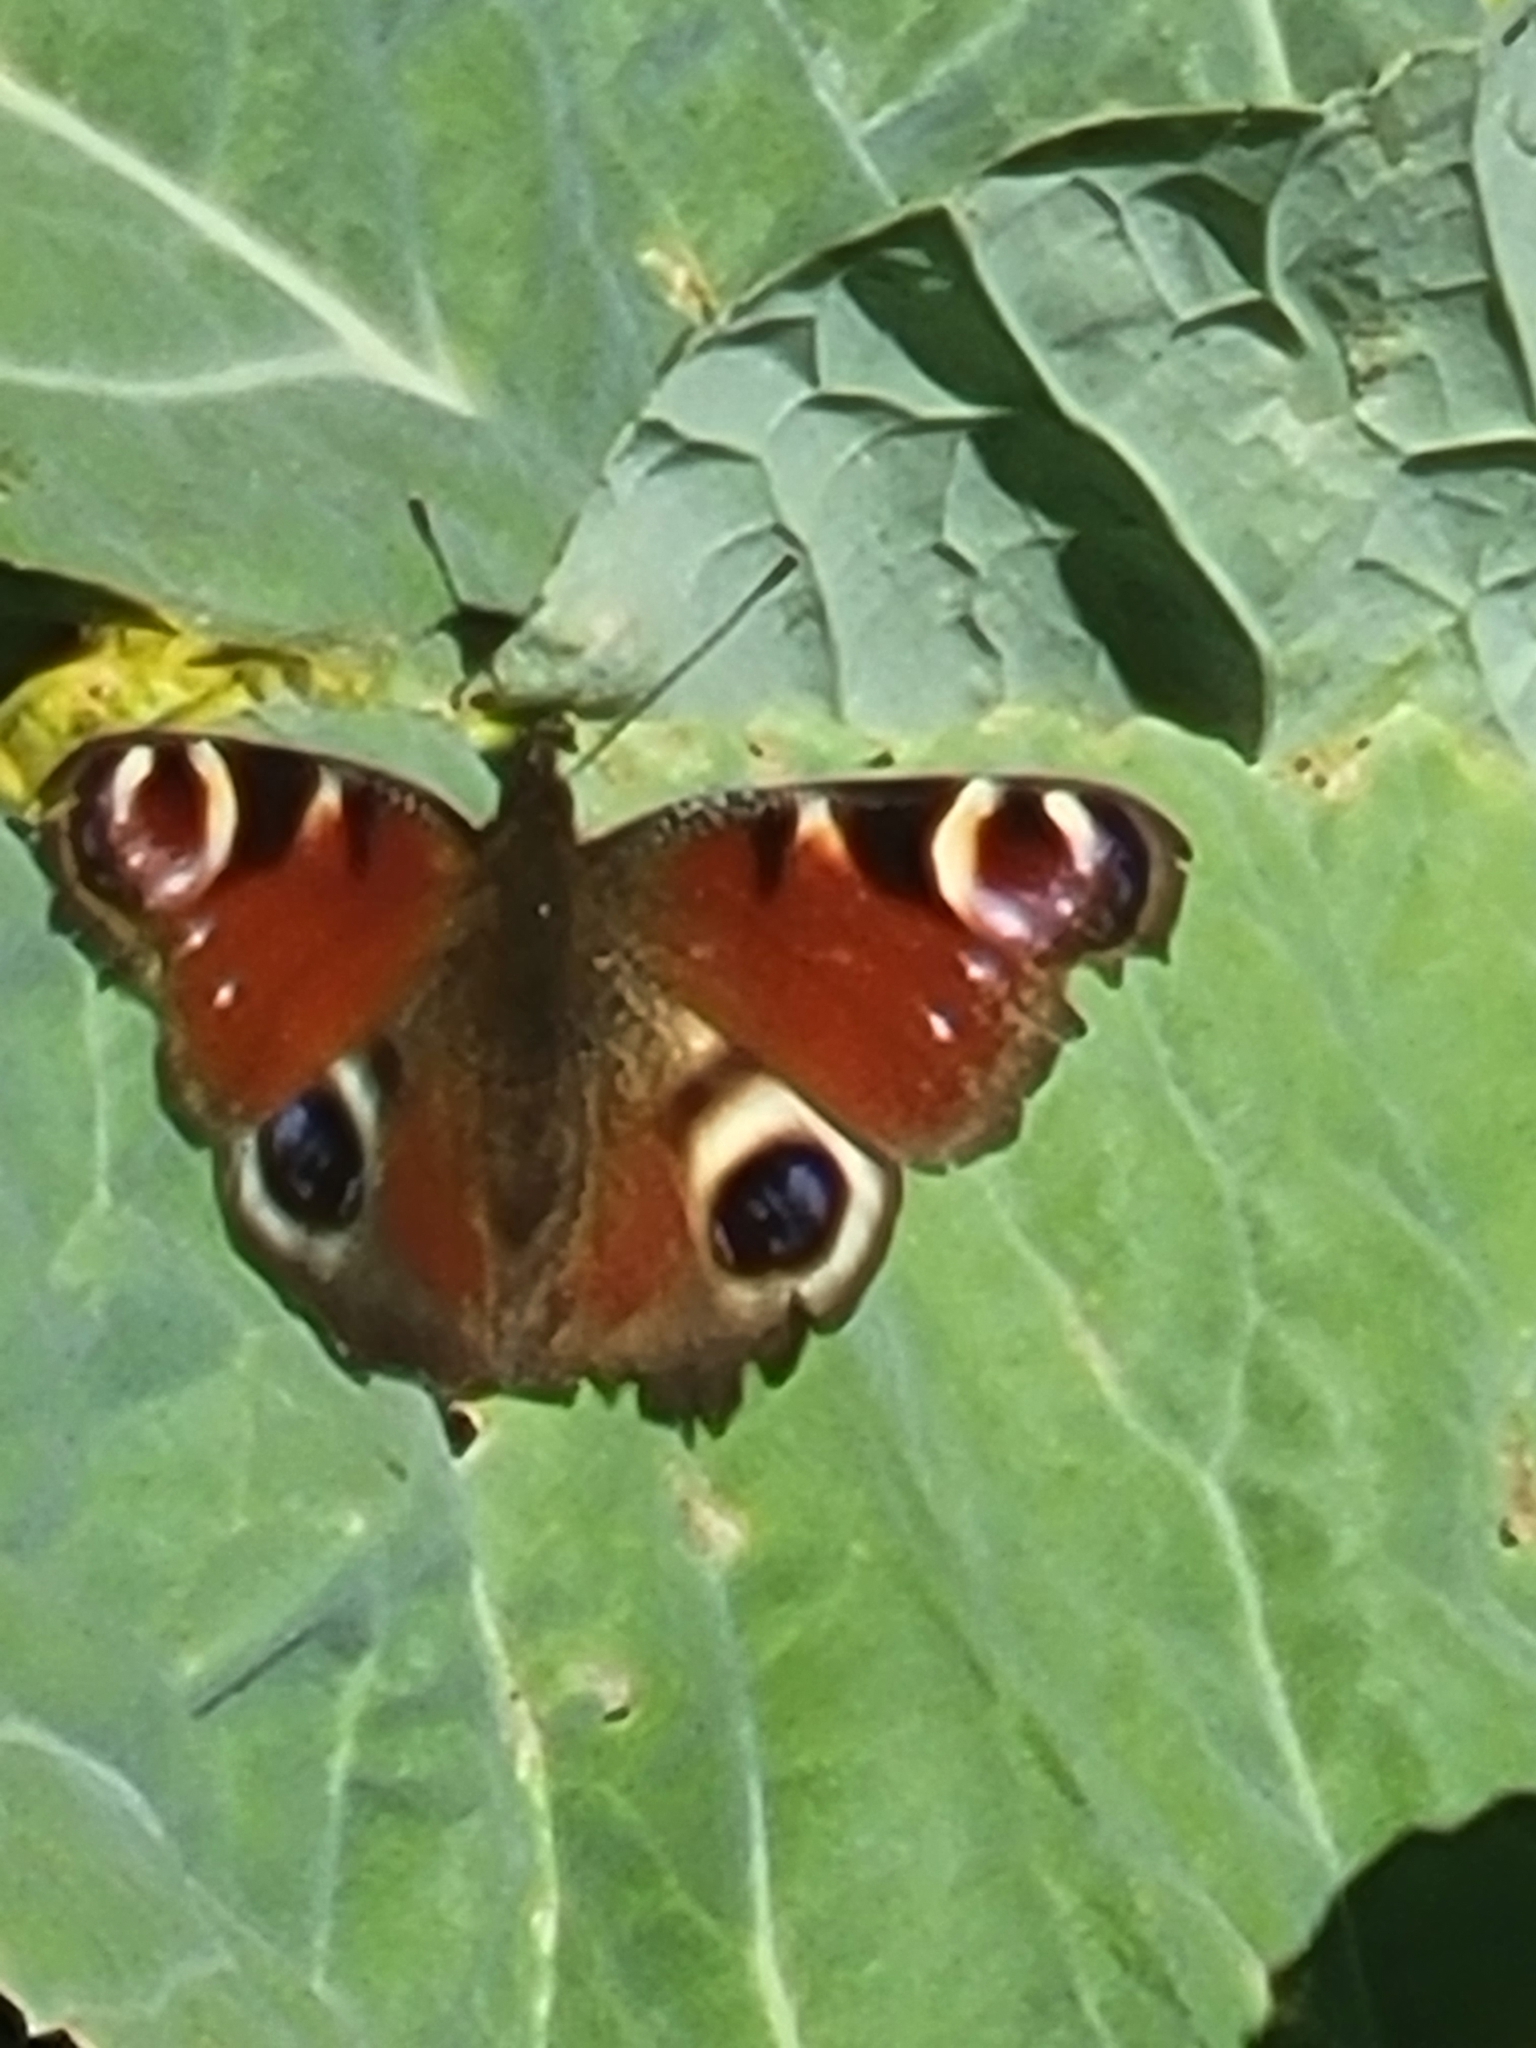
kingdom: Animalia
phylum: Arthropoda
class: Insecta
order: Lepidoptera
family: Nymphalidae
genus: Aglais
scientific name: Aglais io
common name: Peacock
